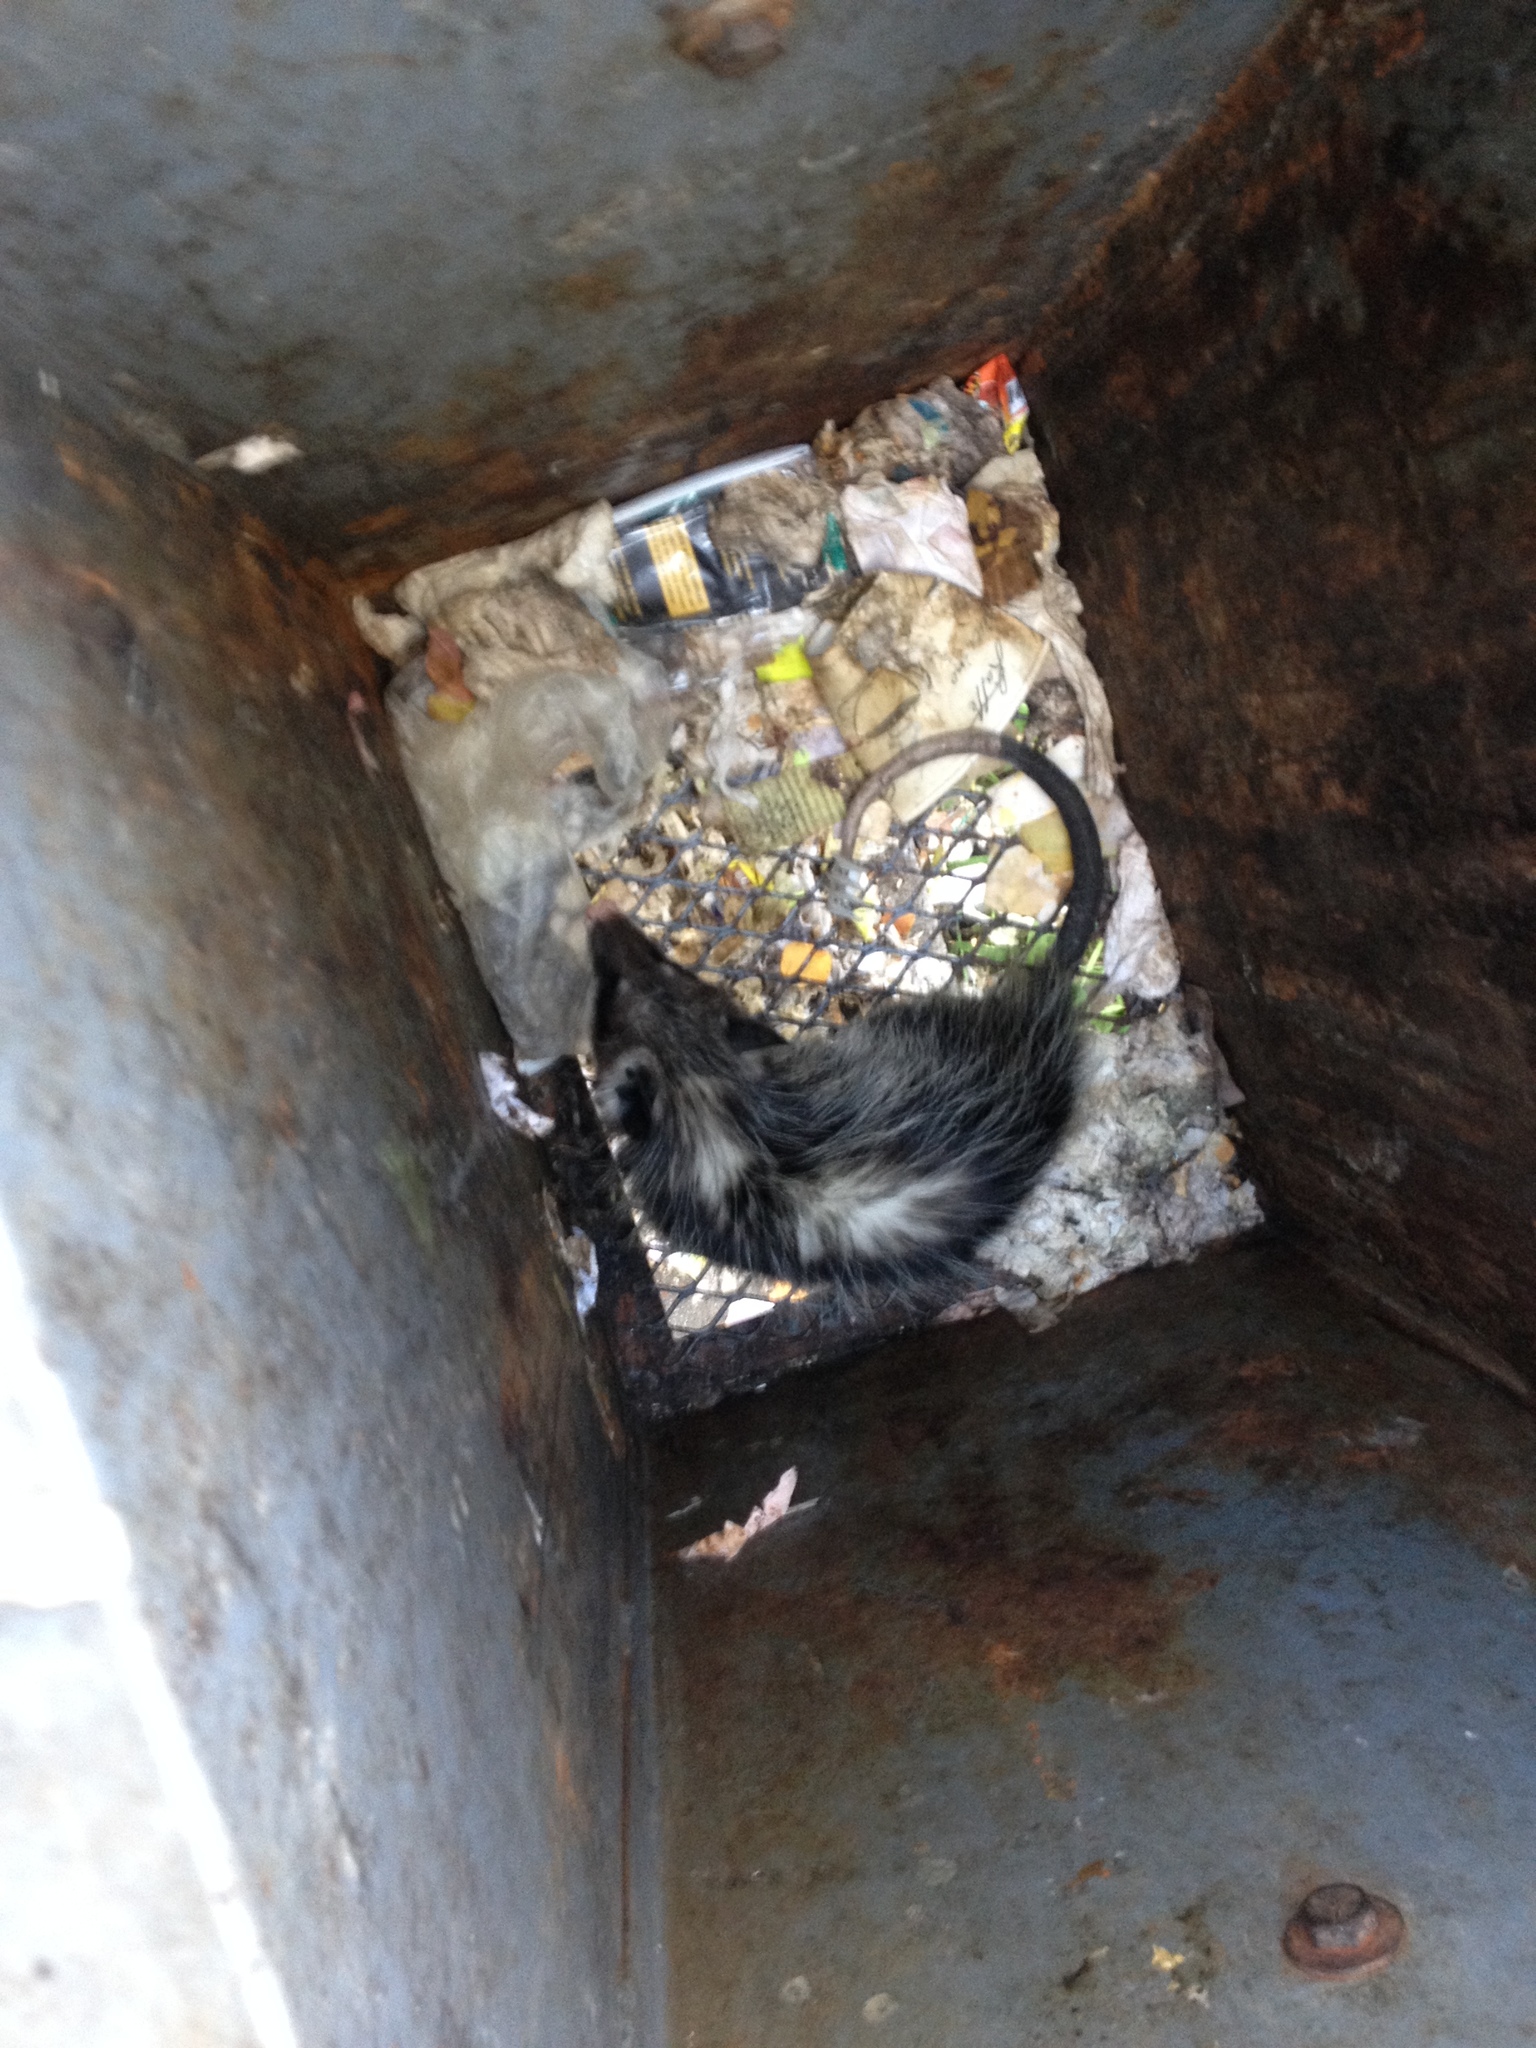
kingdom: Animalia
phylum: Chordata
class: Mammalia
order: Didelphimorphia
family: Didelphidae
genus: Didelphis
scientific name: Didelphis virginiana
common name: Virginia opossum
